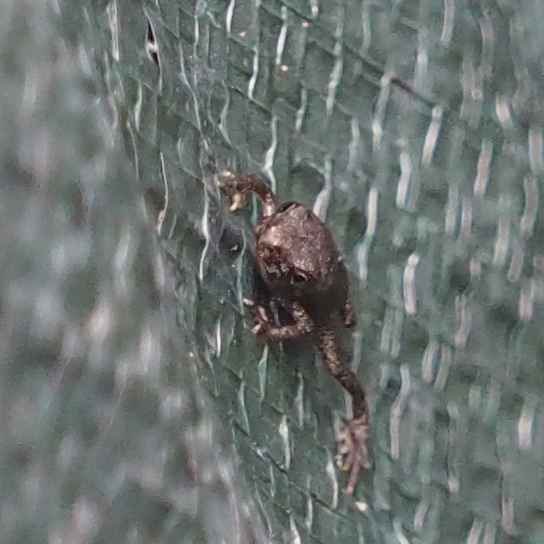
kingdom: Animalia
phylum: Chordata
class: Amphibia
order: Anura
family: Bufonidae
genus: Anaxyrus
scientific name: Anaxyrus americanus
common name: American toad
